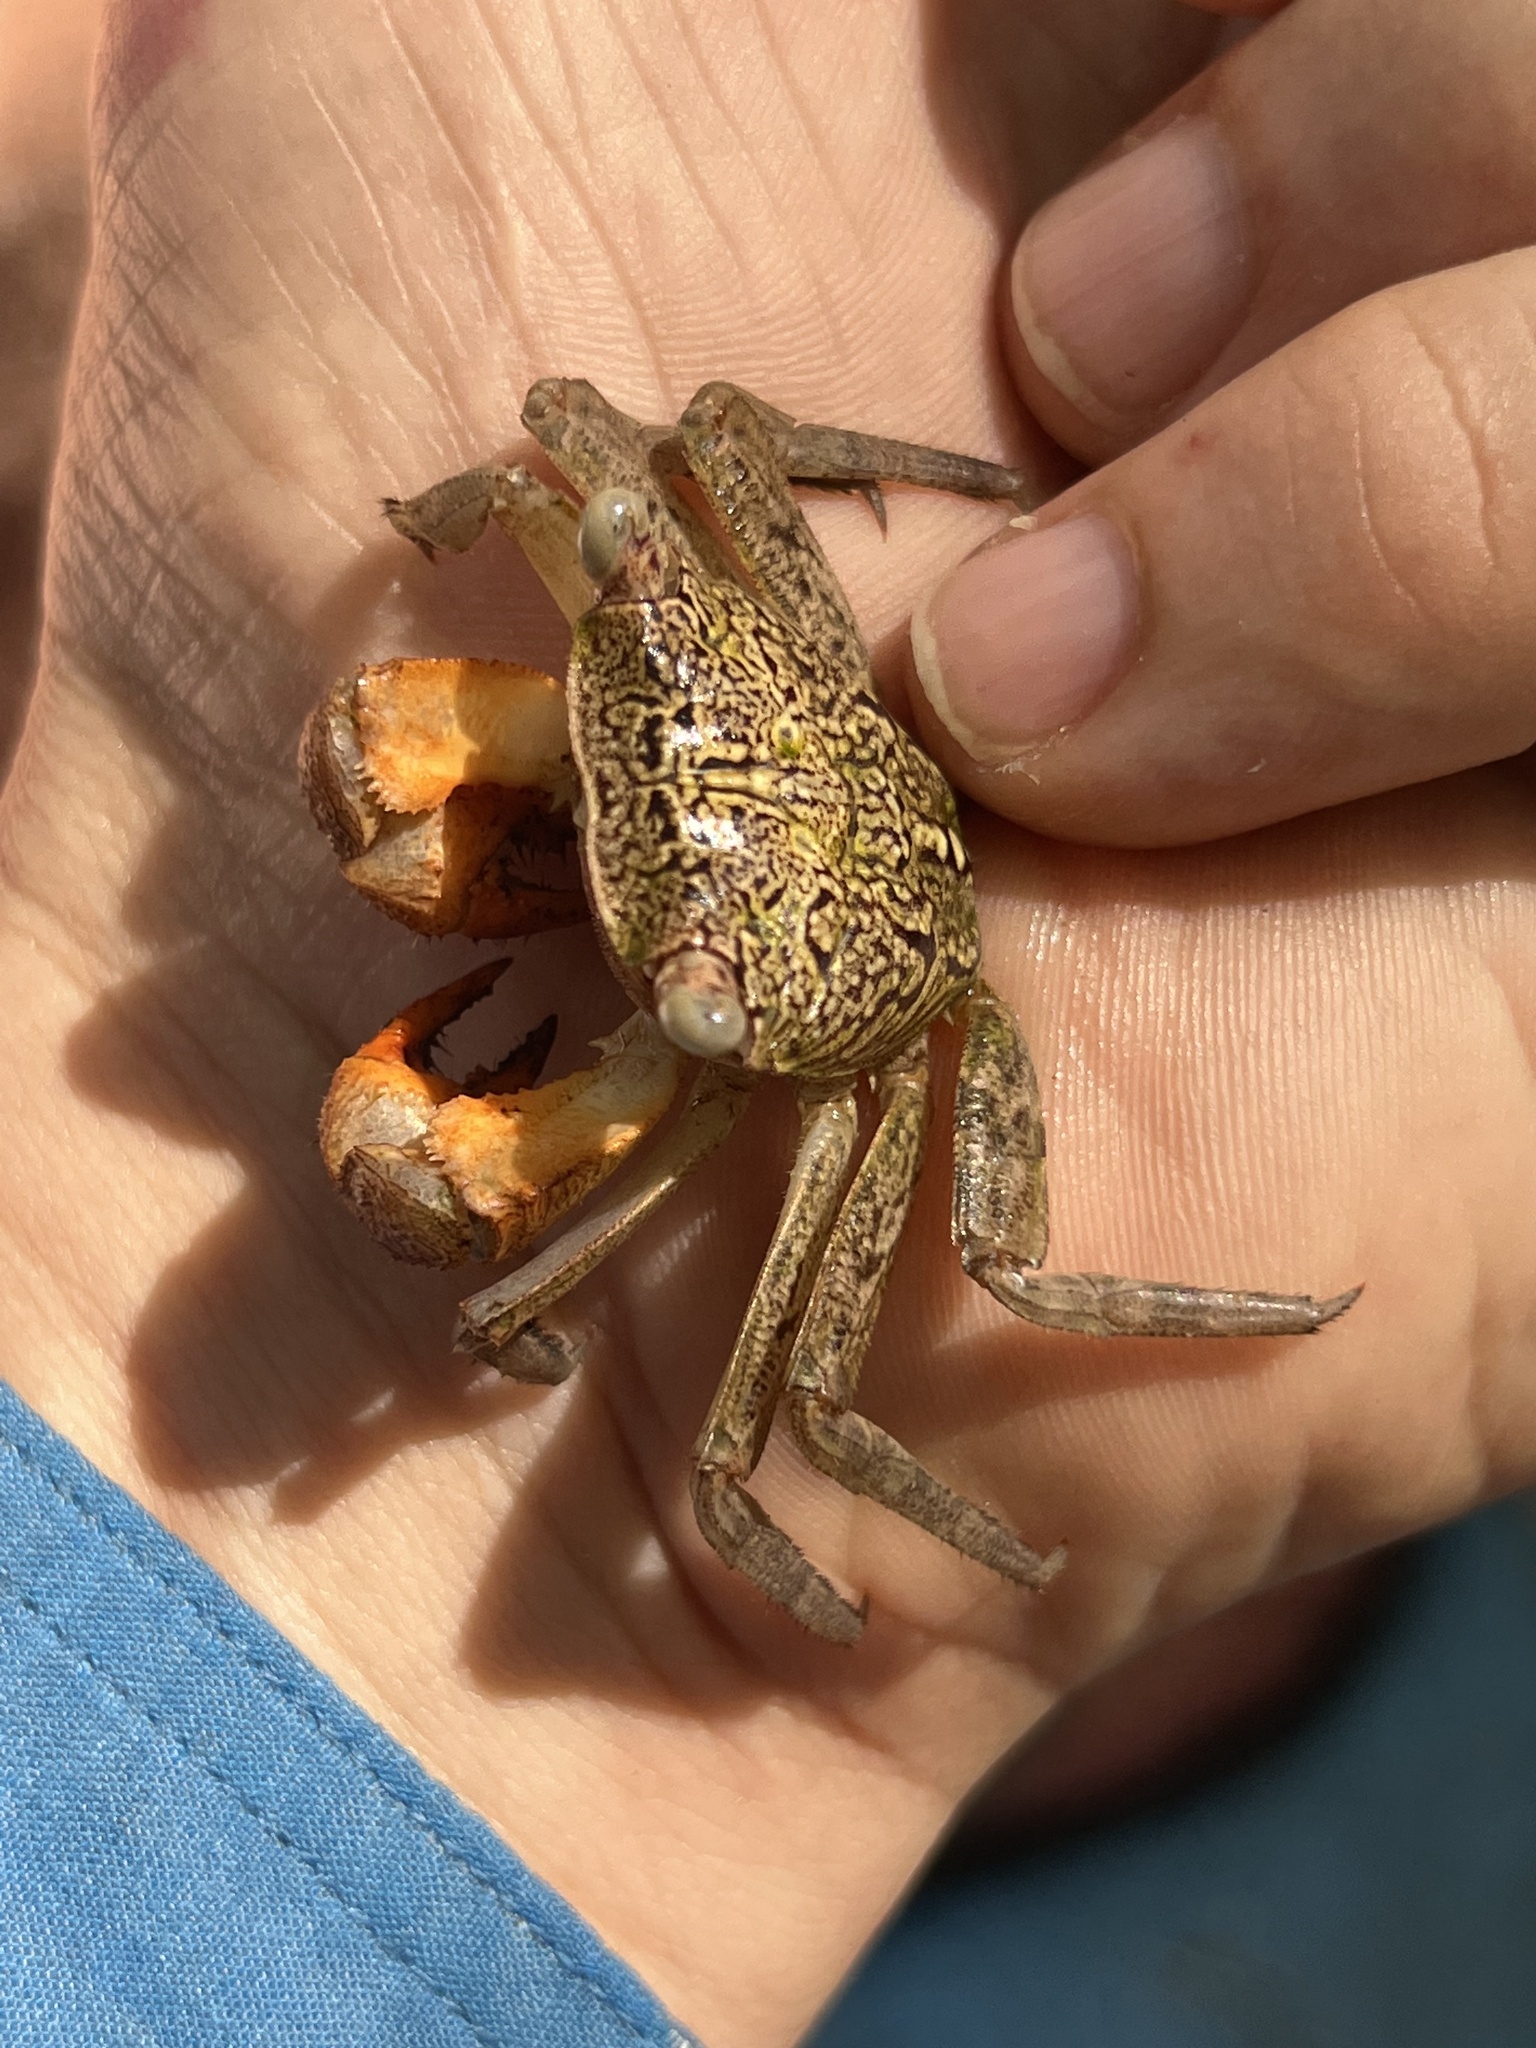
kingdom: Animalia
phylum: Arthropoda
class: Malacostraca
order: Decapoda
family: Sesarmidae
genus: Aratus
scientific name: Aratus pacificus
